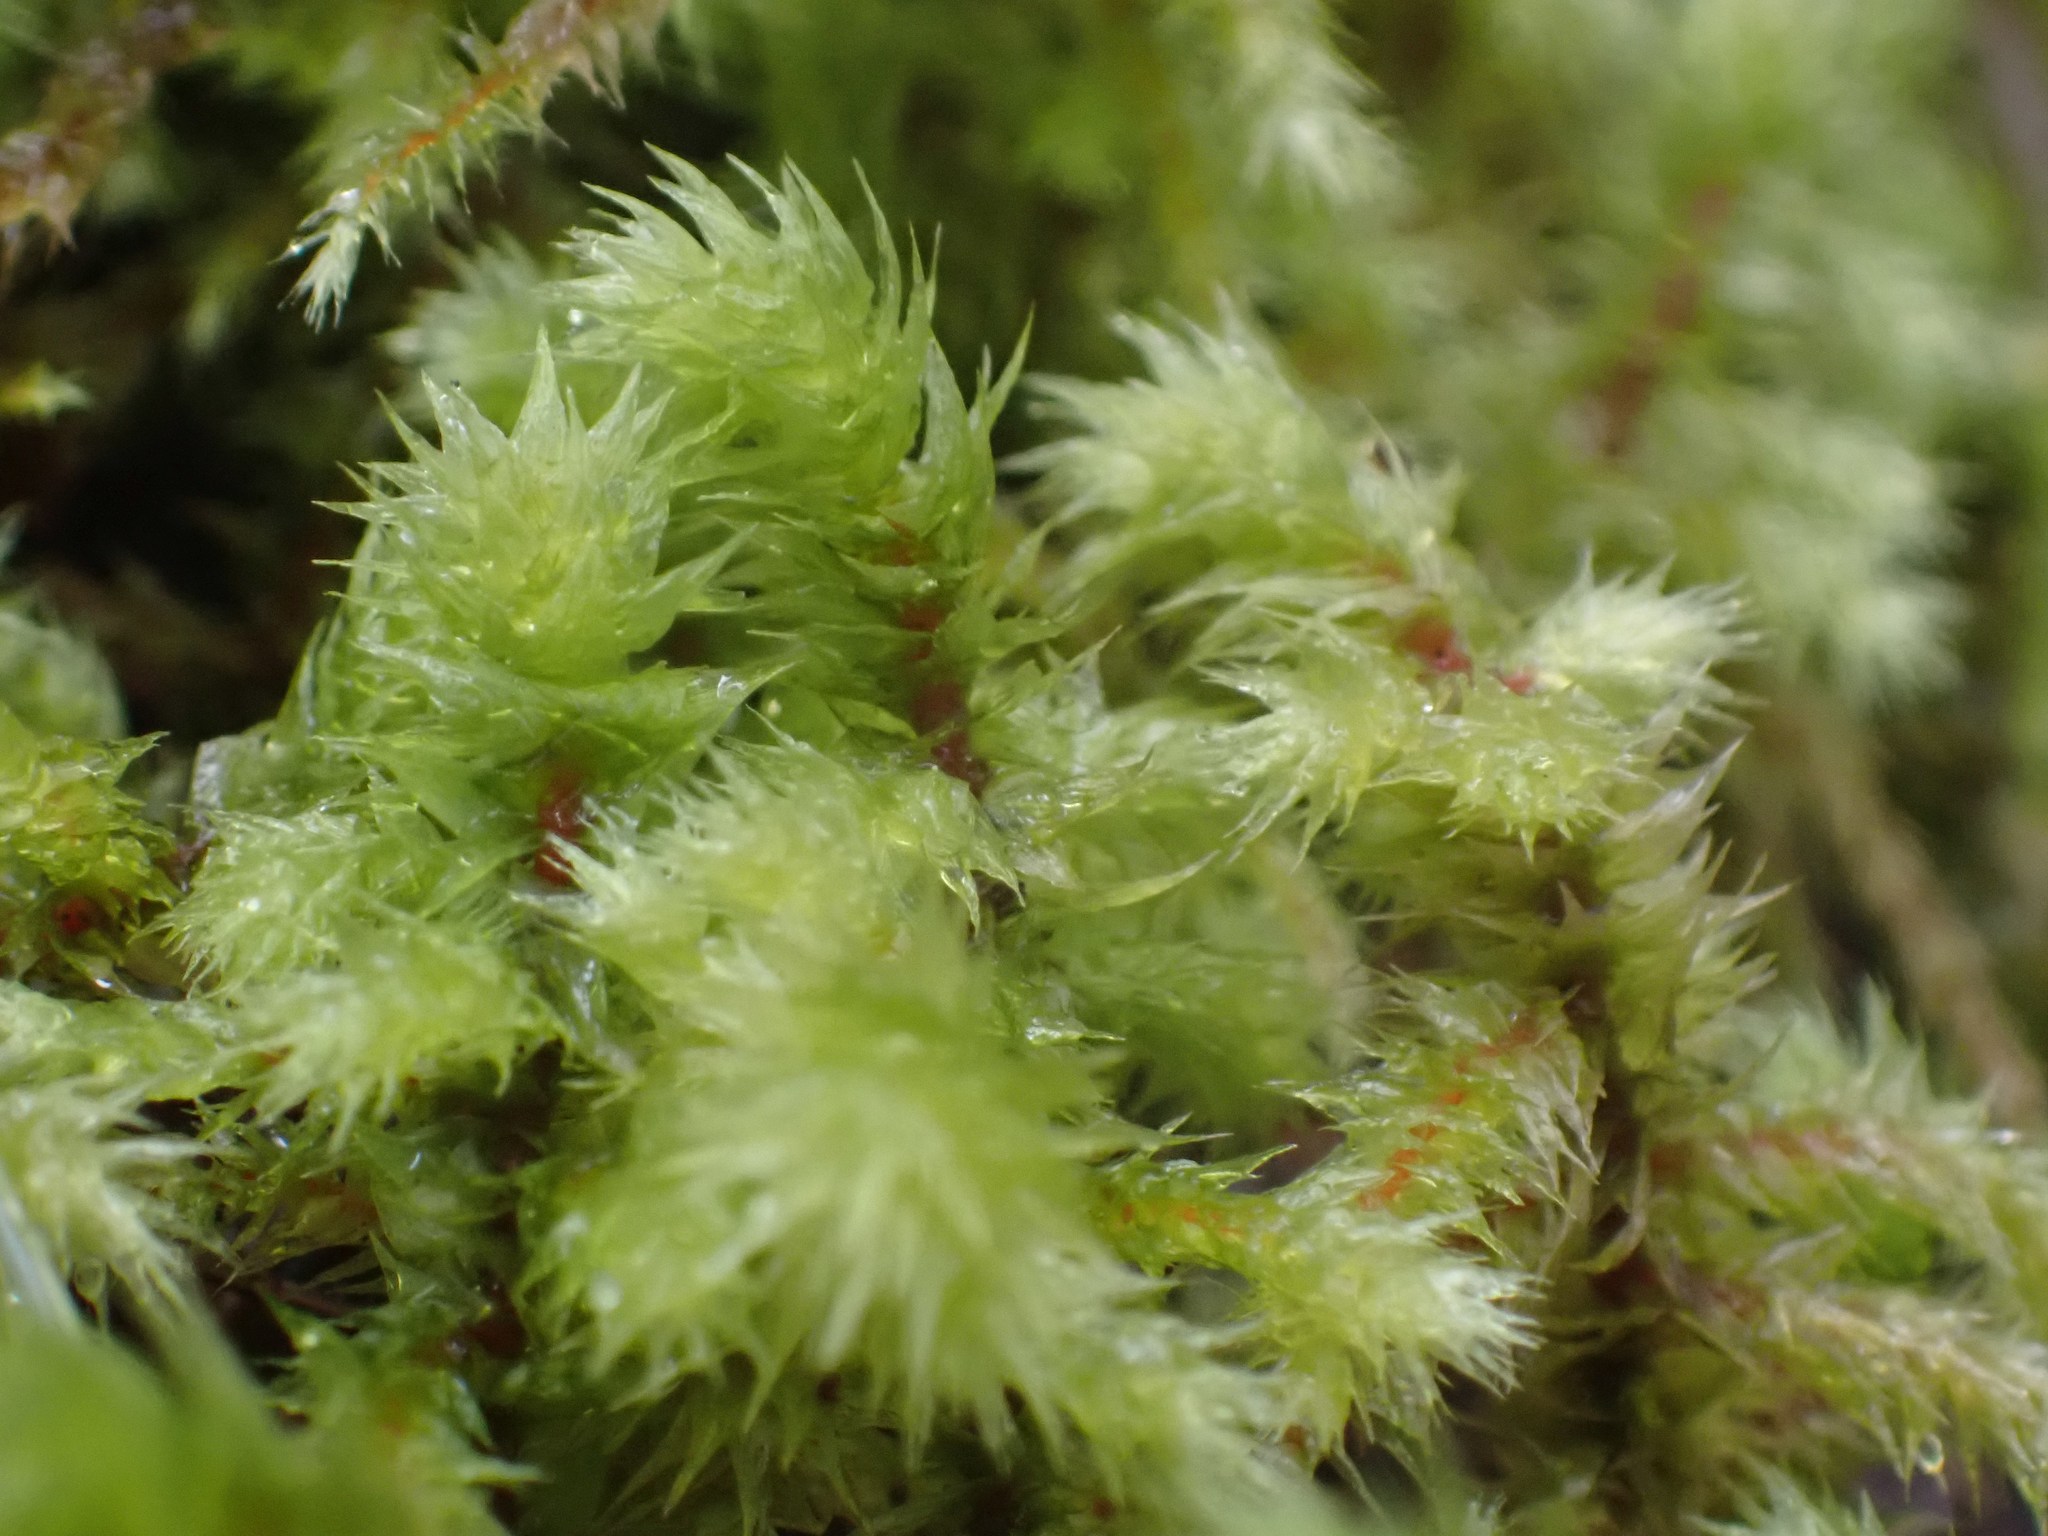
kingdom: Plantae
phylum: Bryophyta
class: Bryopsida
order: Hypnales
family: Hylocomiaceae
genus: Hylocomiadelphus
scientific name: Hylocomiadelphus triquetrus
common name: Rough goose neck moss
